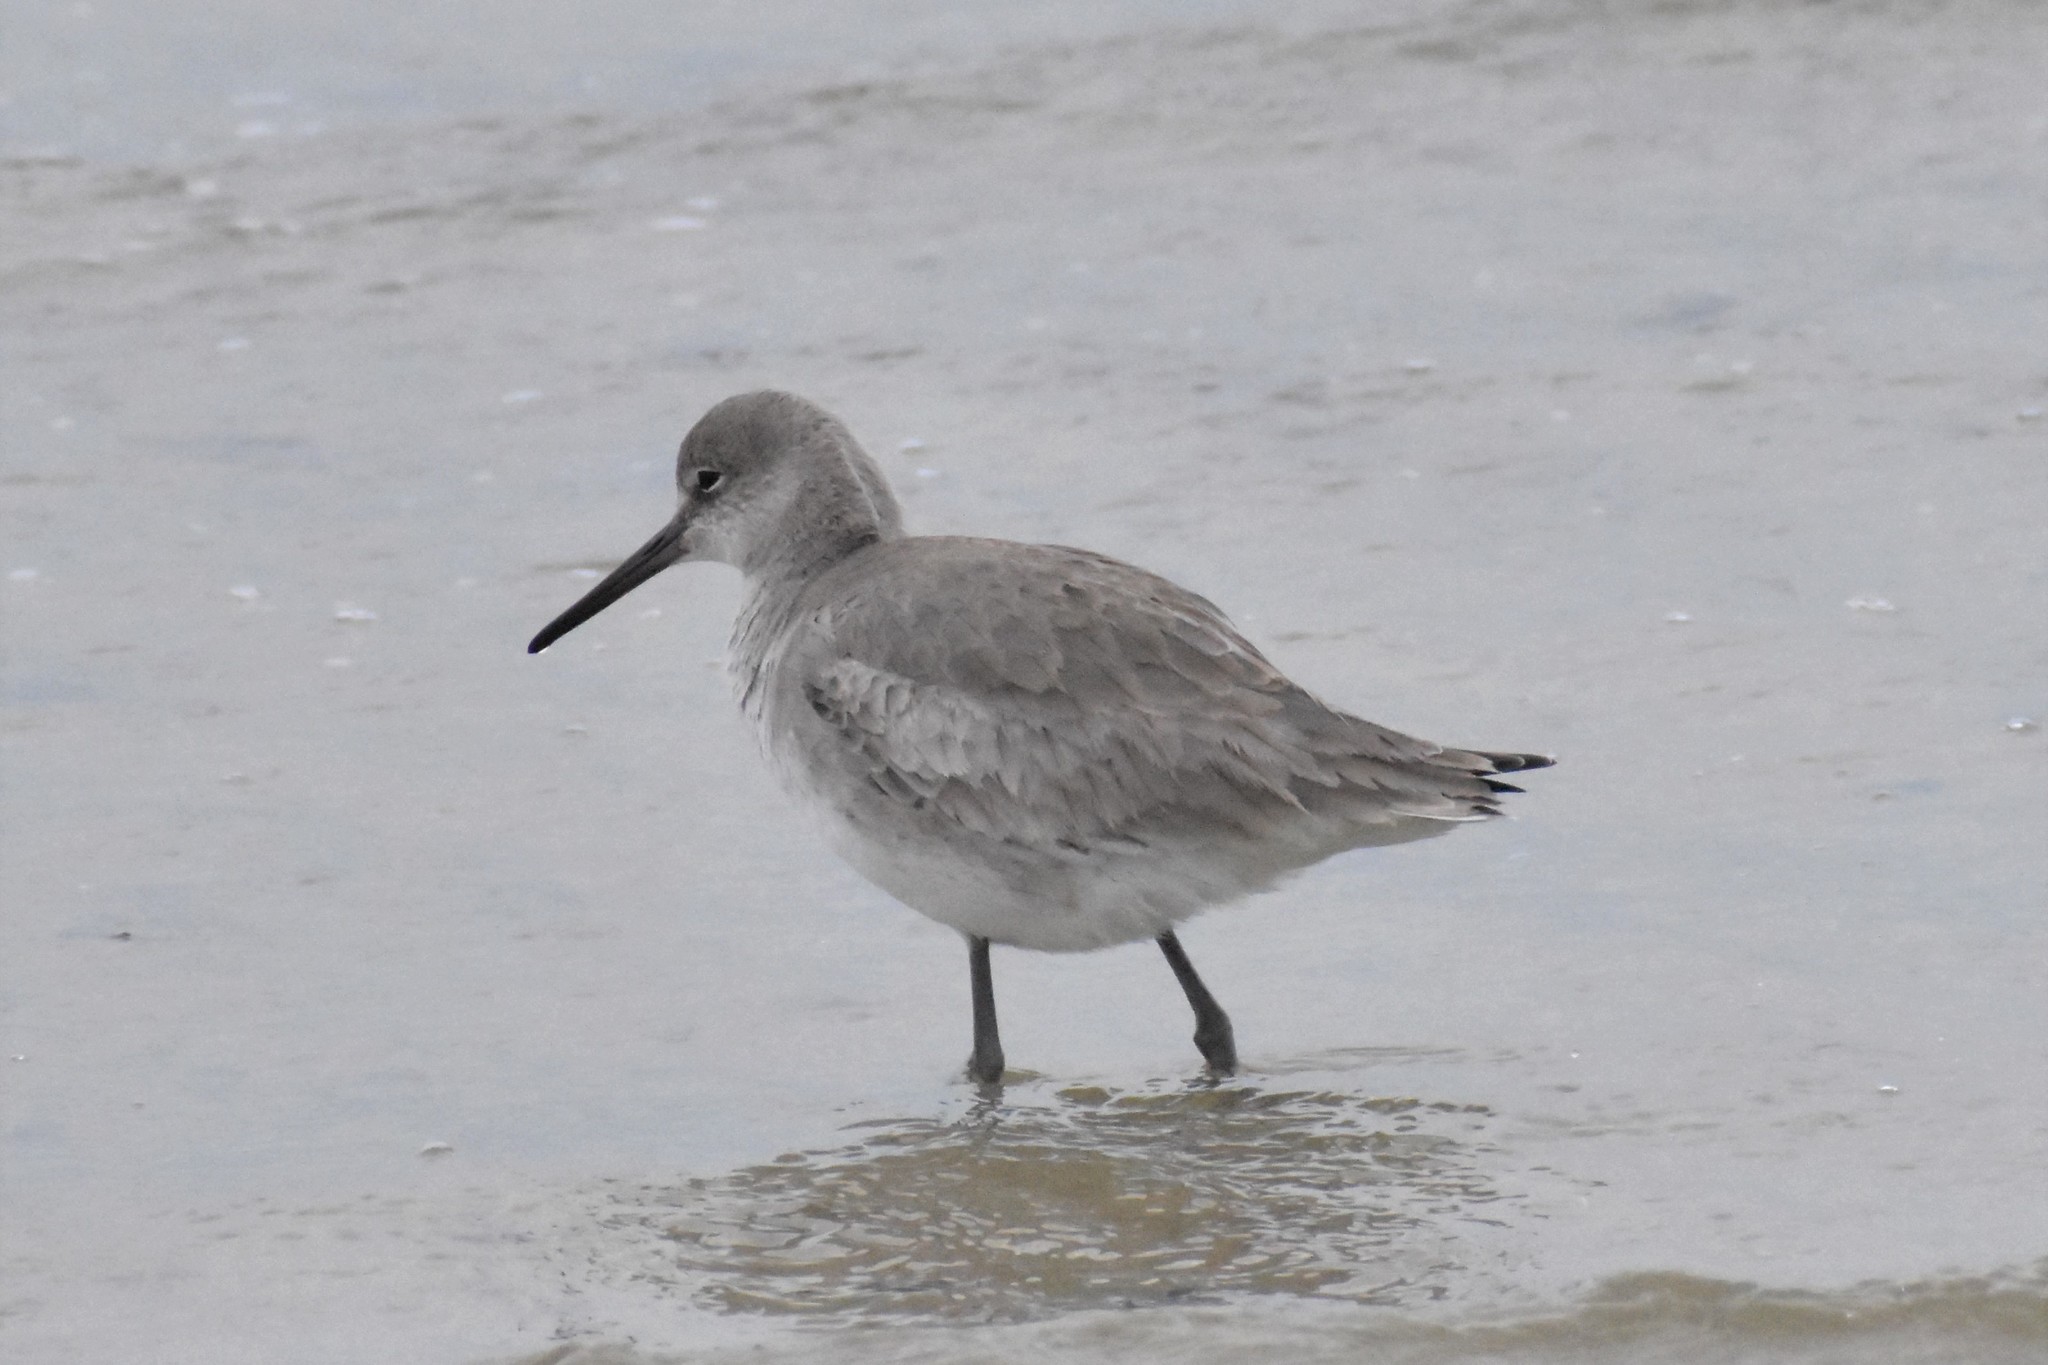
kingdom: Animalia
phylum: Chordata
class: Aves
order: Charadriiformes
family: Scolopacidae
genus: Tringa
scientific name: Tringa semipalmata
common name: Willet
